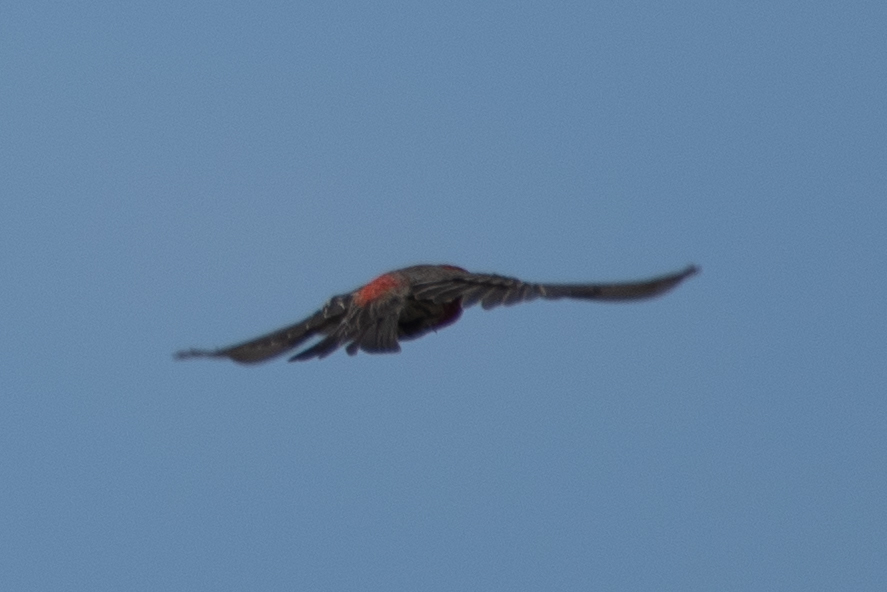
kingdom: Animalia
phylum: Chordata
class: Aves
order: Passeriformes
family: Fringillidae
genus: Haemorhous
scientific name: Haemorhous mexicanus
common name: House finch
